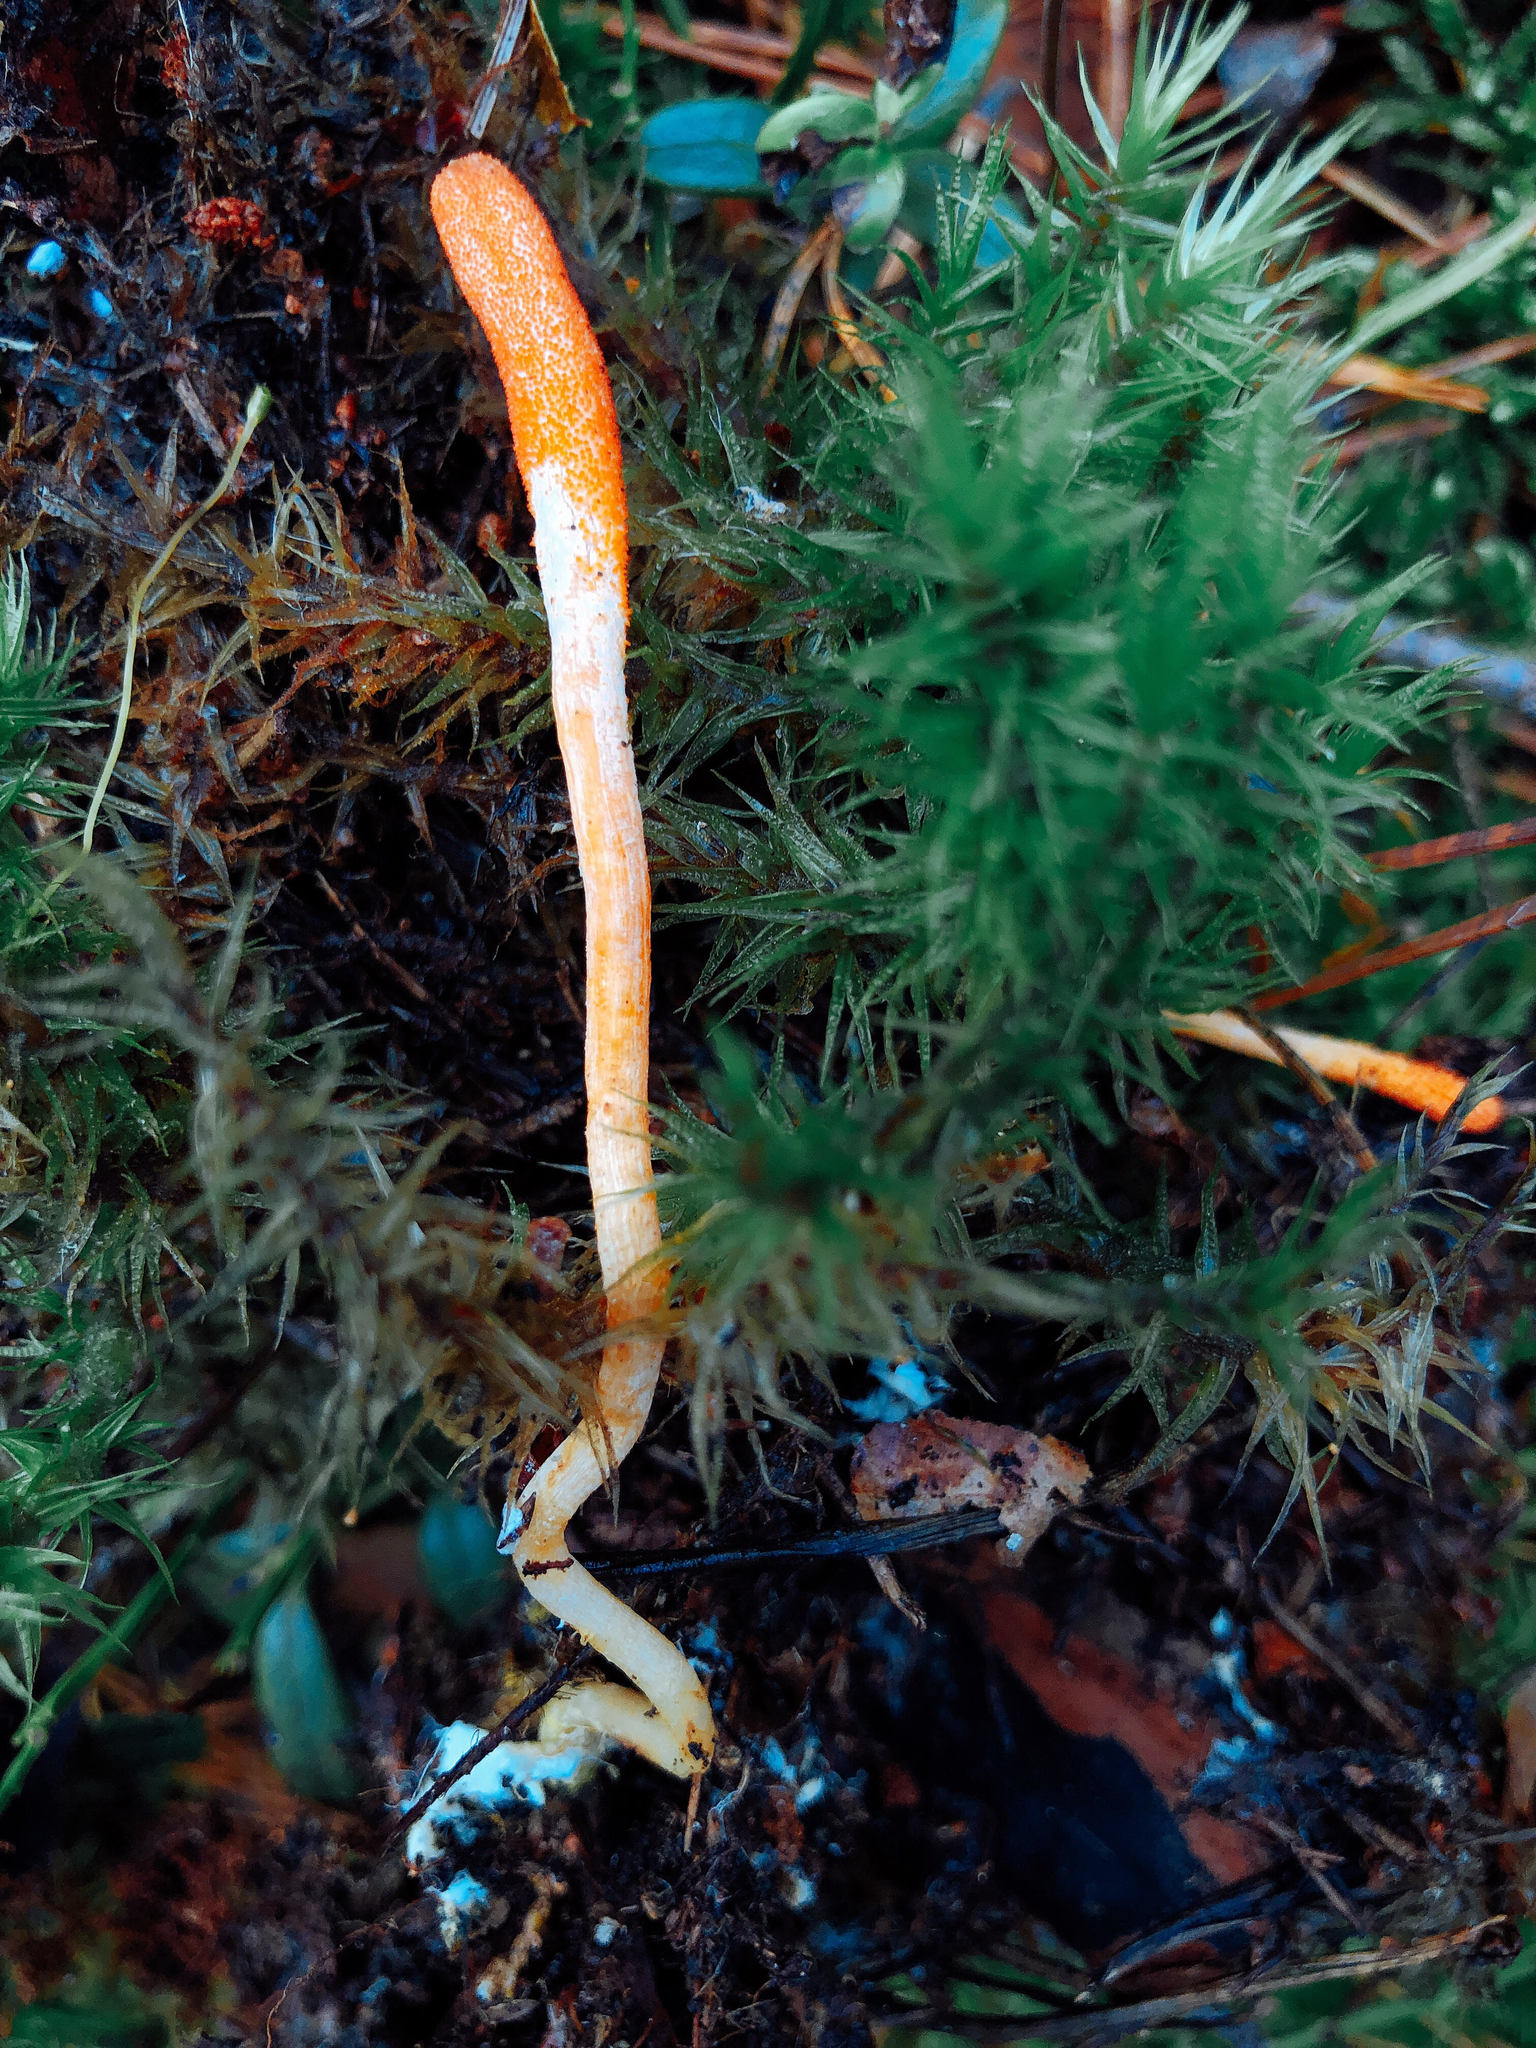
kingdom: Fungi
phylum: Ascomycota
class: Sordariomycetes
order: Hypocreales
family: Cordycipitaceae
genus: Cordyceps
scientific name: Cordyceps militaris
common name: Scarlet caterpillar fungus
